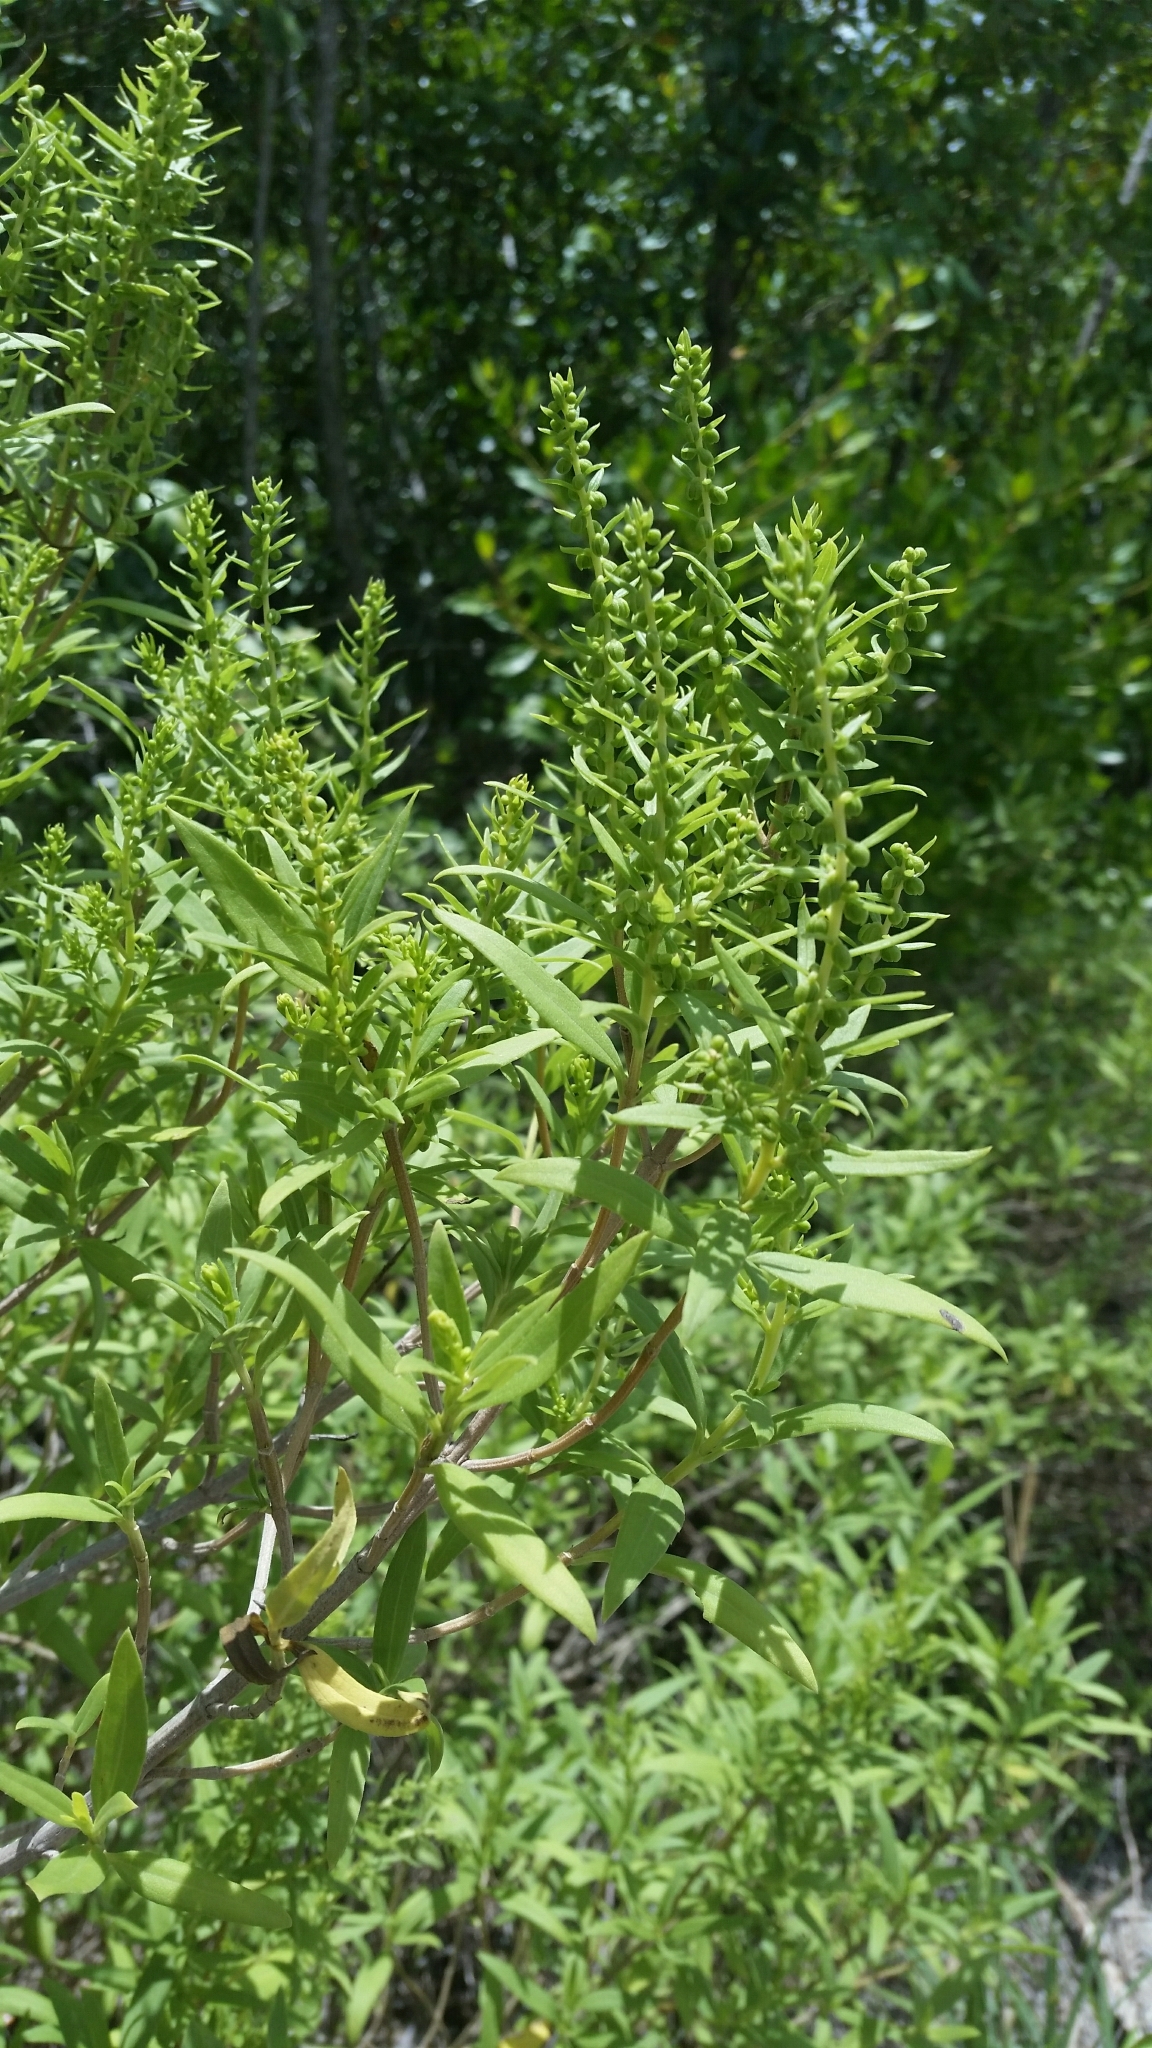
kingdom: Plantae
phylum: Tracheophyta
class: Magnoliopsida
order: Asterales
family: Asteraceae
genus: Iva
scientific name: Iva frutescens
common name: Big-leaved marsh-elder
